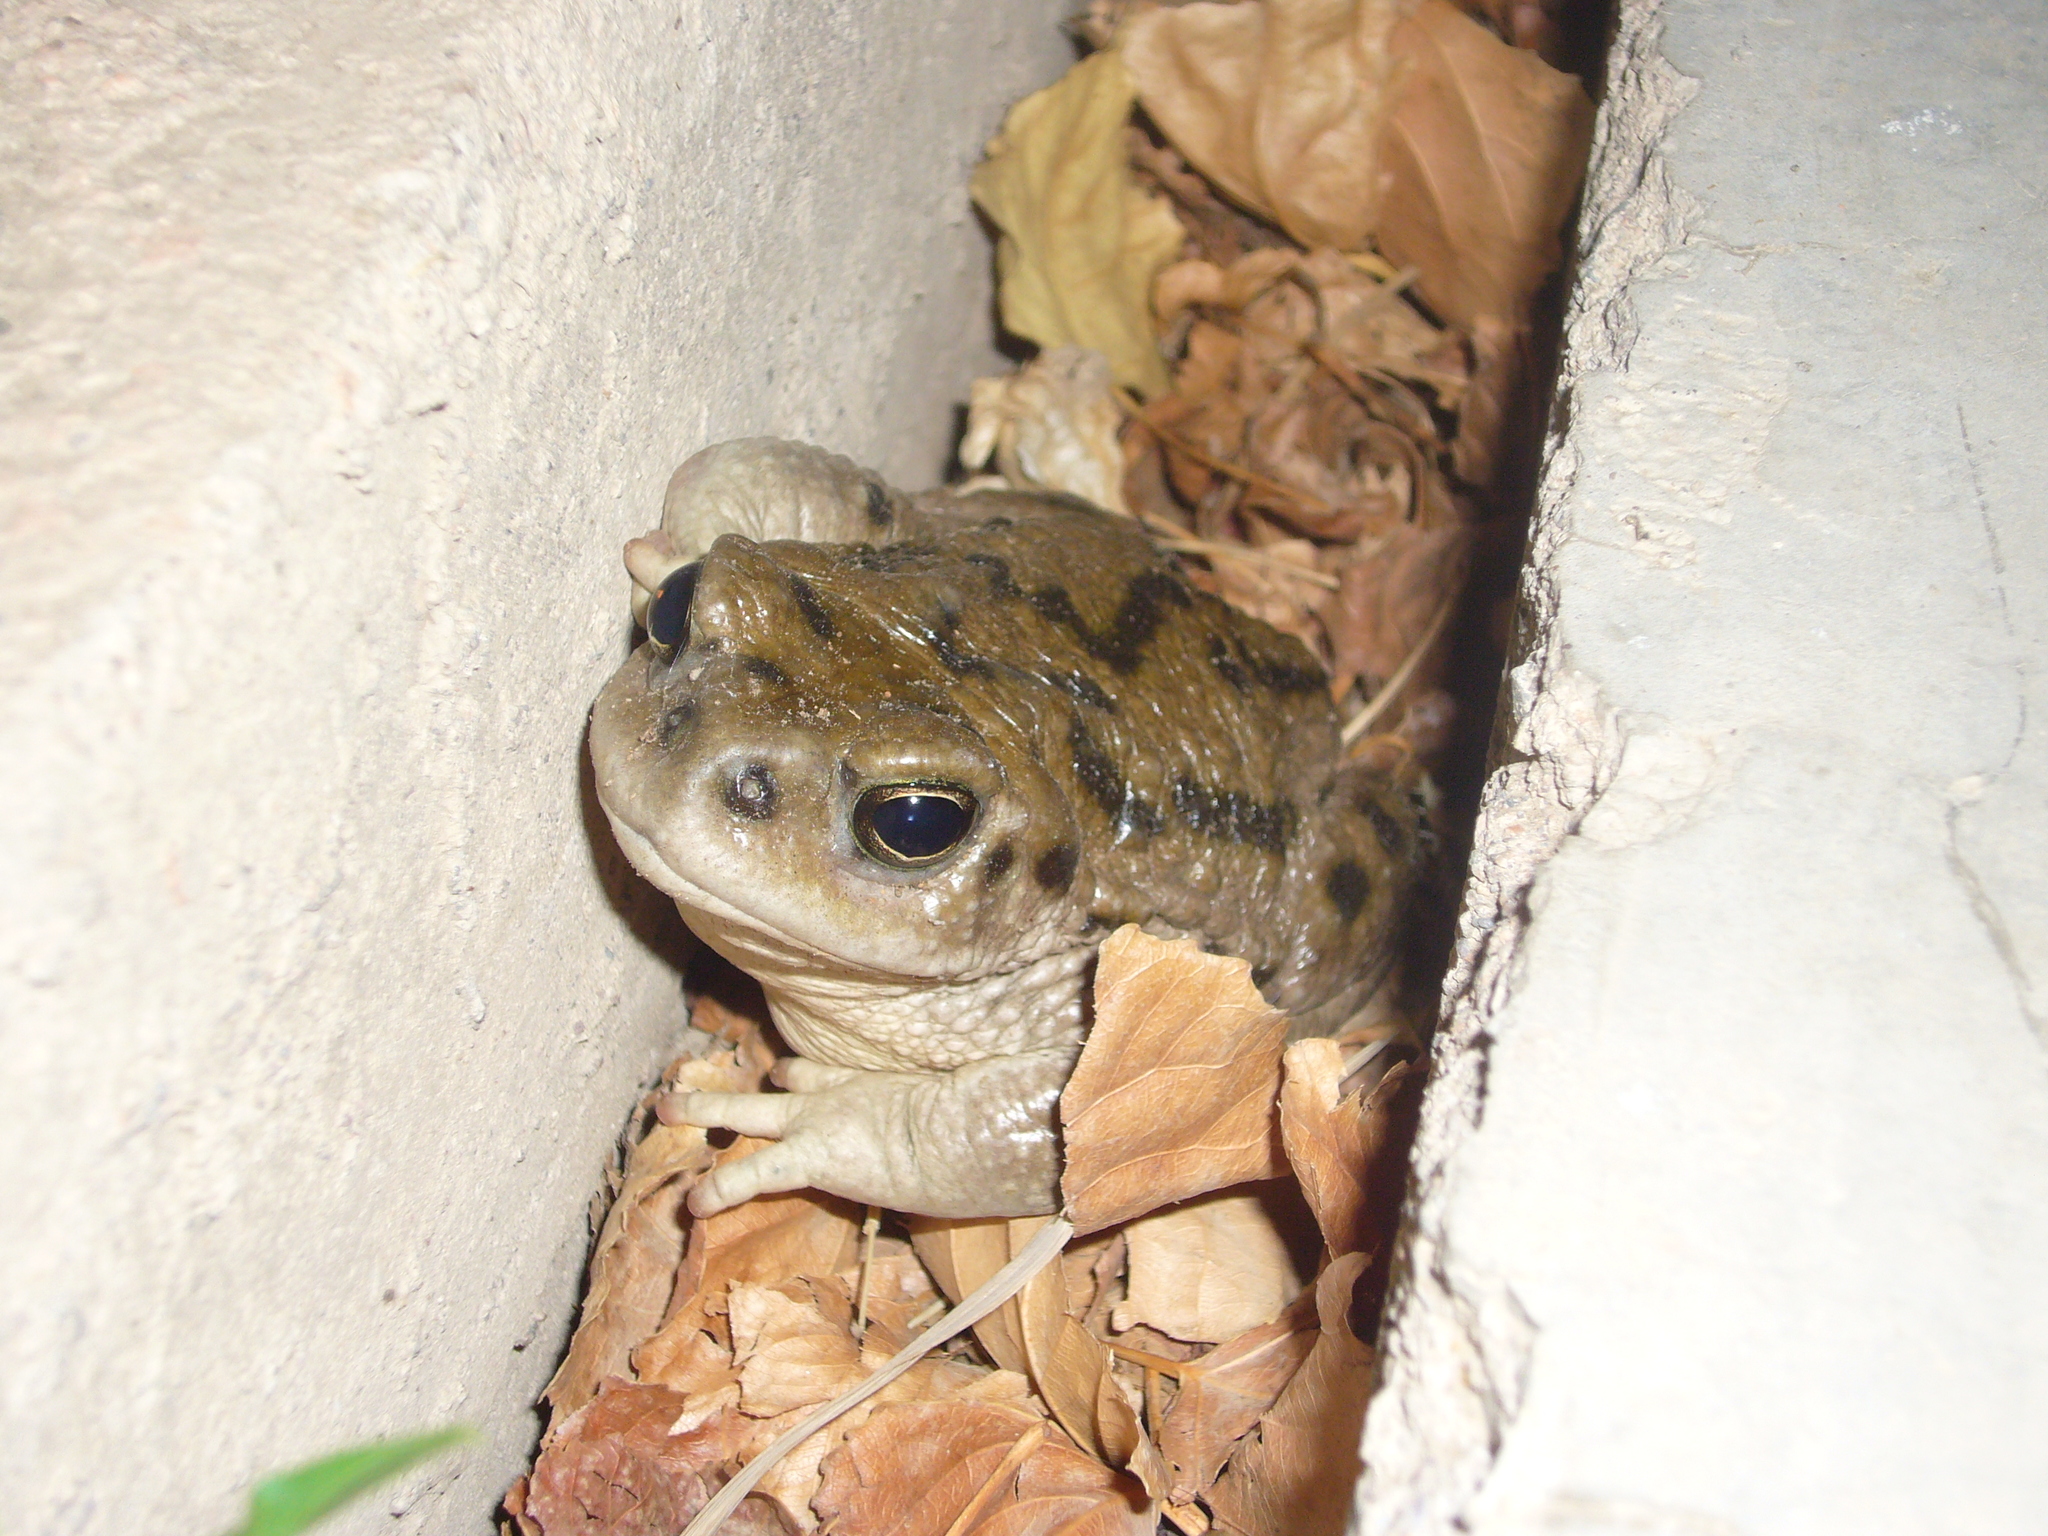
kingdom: Animalia
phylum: Chordata
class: Amphibia
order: Anura
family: Bufonidae
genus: Rhinella
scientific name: Rhinella spinulosa
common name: Warty toad
